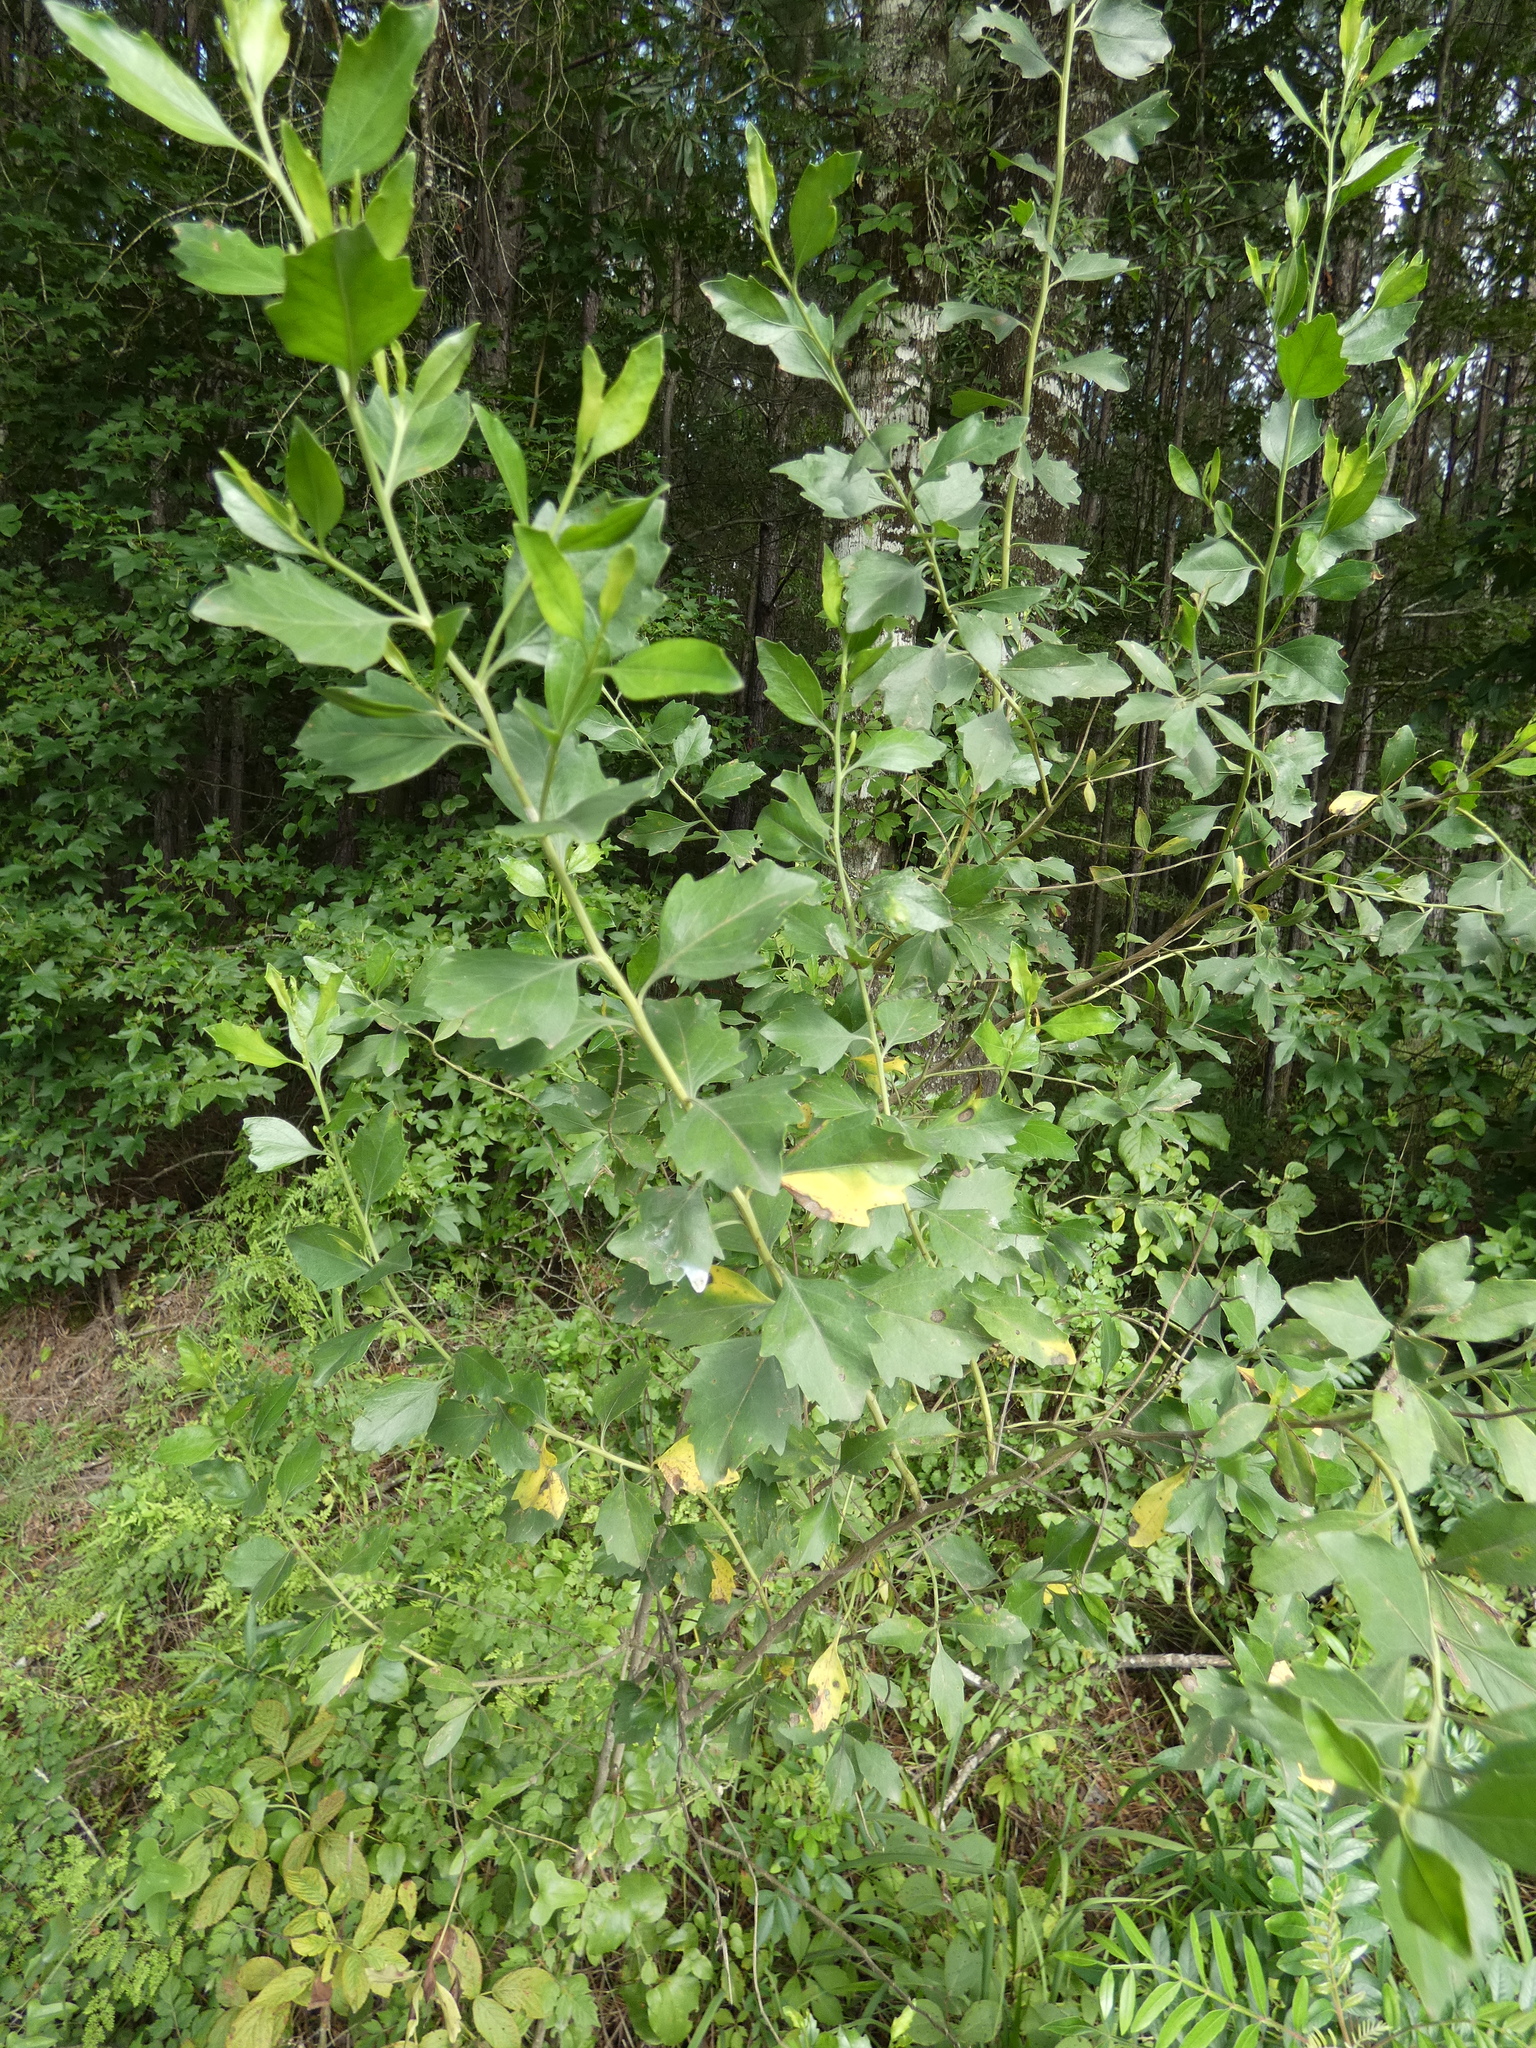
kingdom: Plantae
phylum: Tracheophyta
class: Magnoliopsida
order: Asterales
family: Asteraceae
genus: Baccharis
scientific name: Baccharis halimifolia
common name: Eastern baccharis
